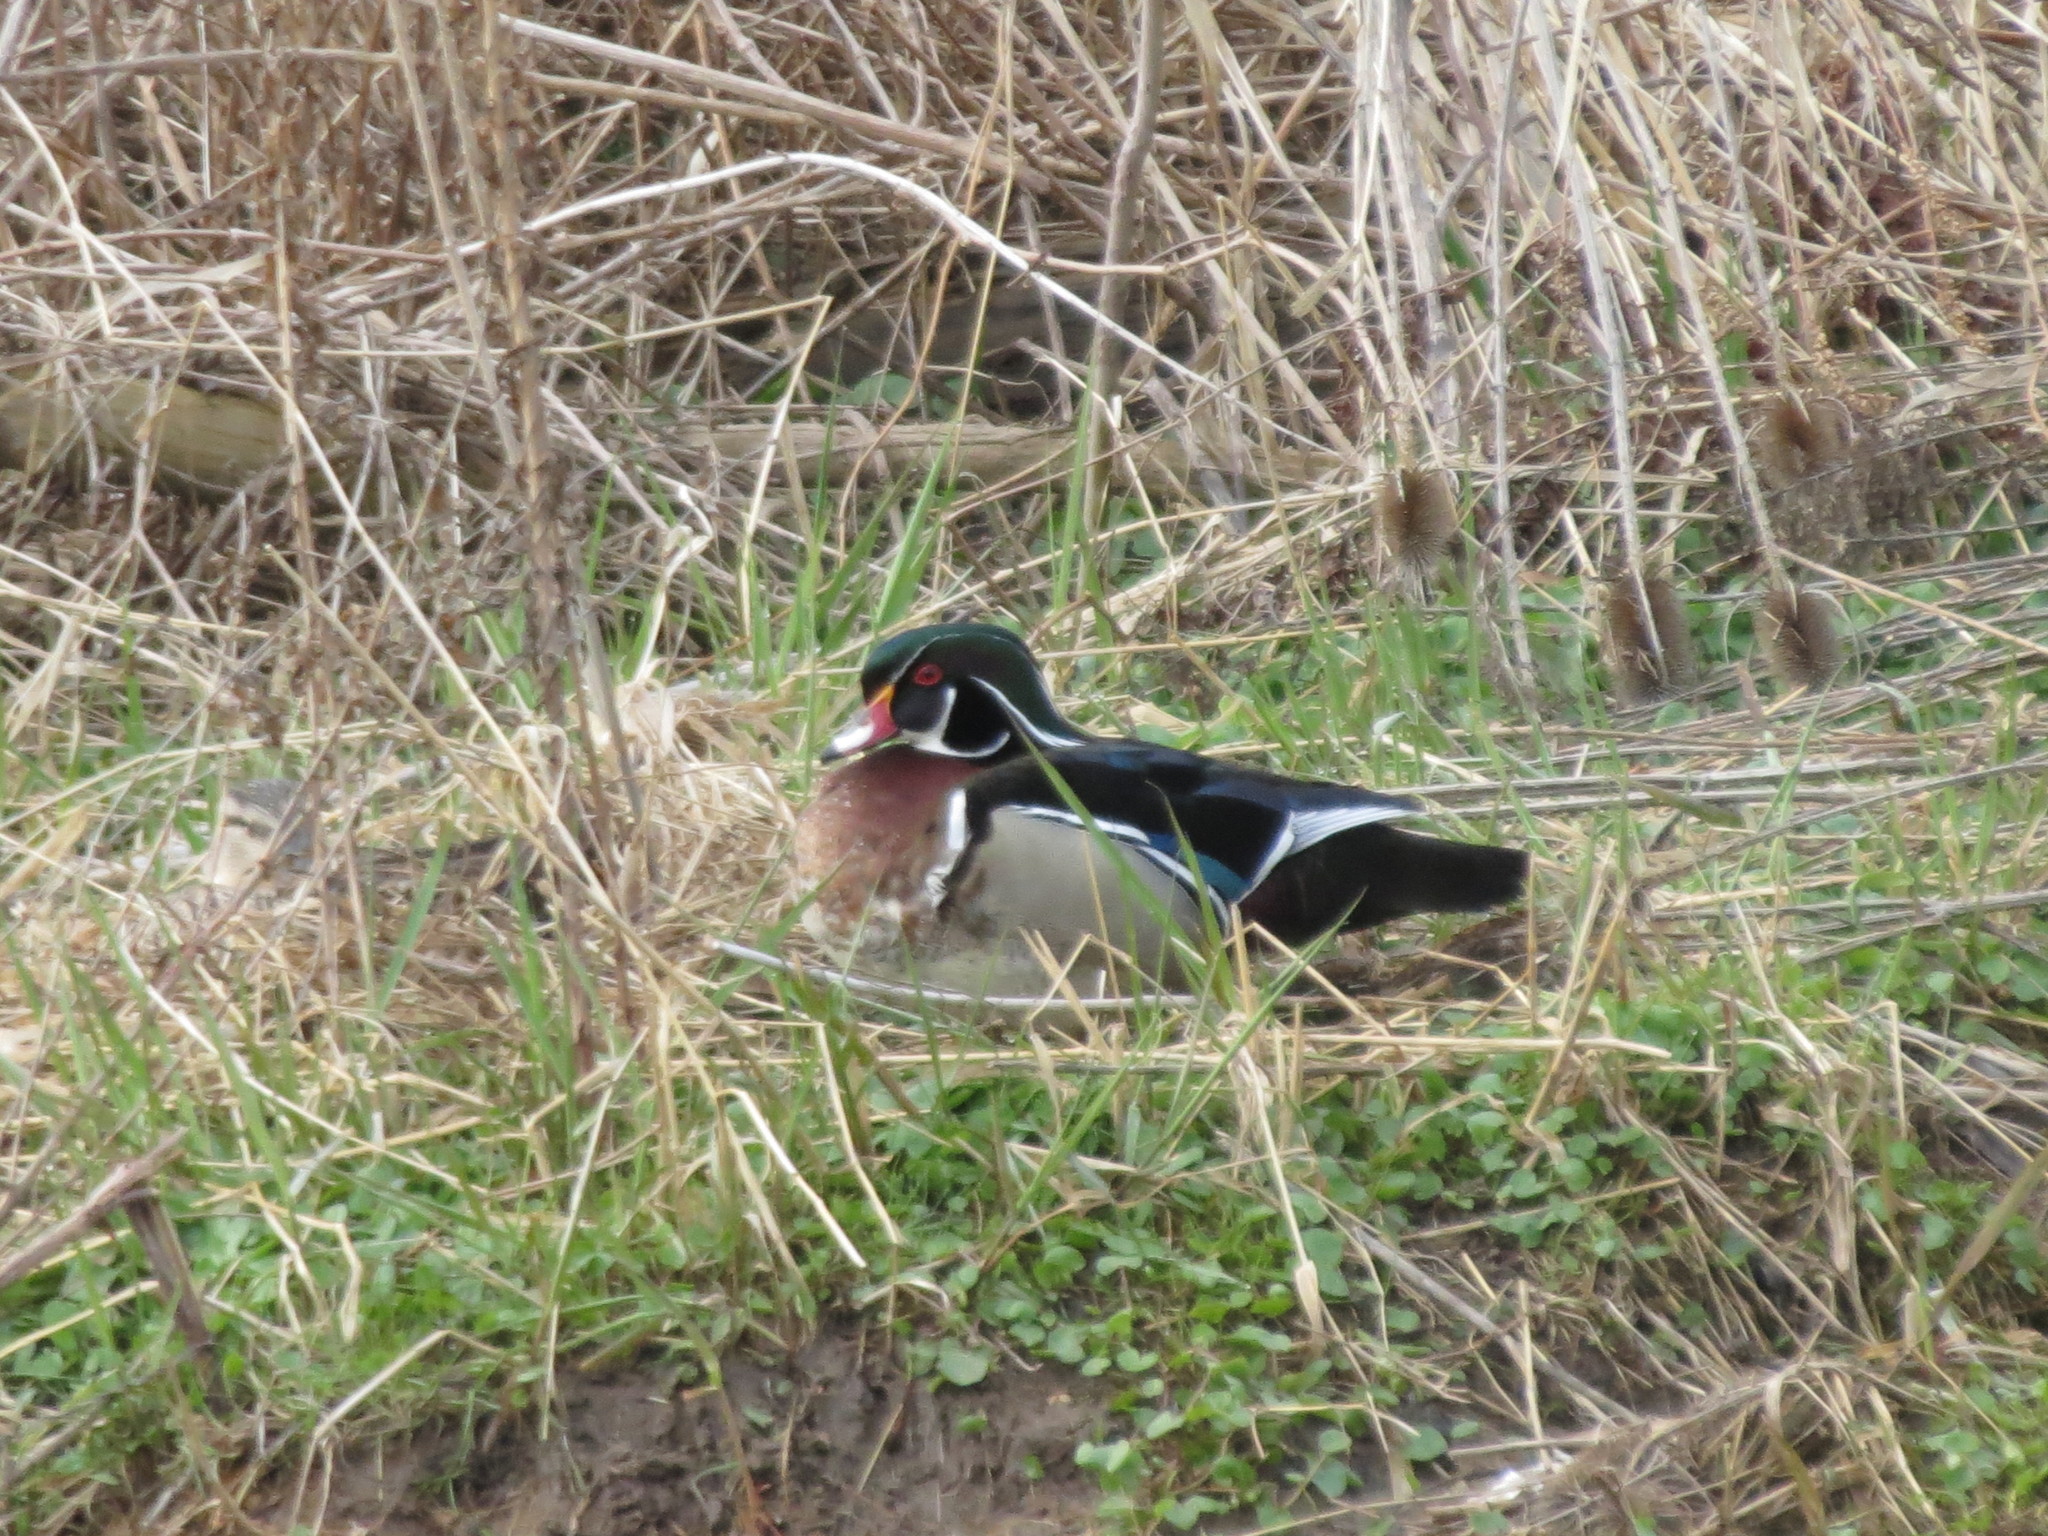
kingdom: Animalia
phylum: Chordata
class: Aves
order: Anseriformes
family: Anatidae
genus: Aix
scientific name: Aix sponsa
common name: Wood duck
